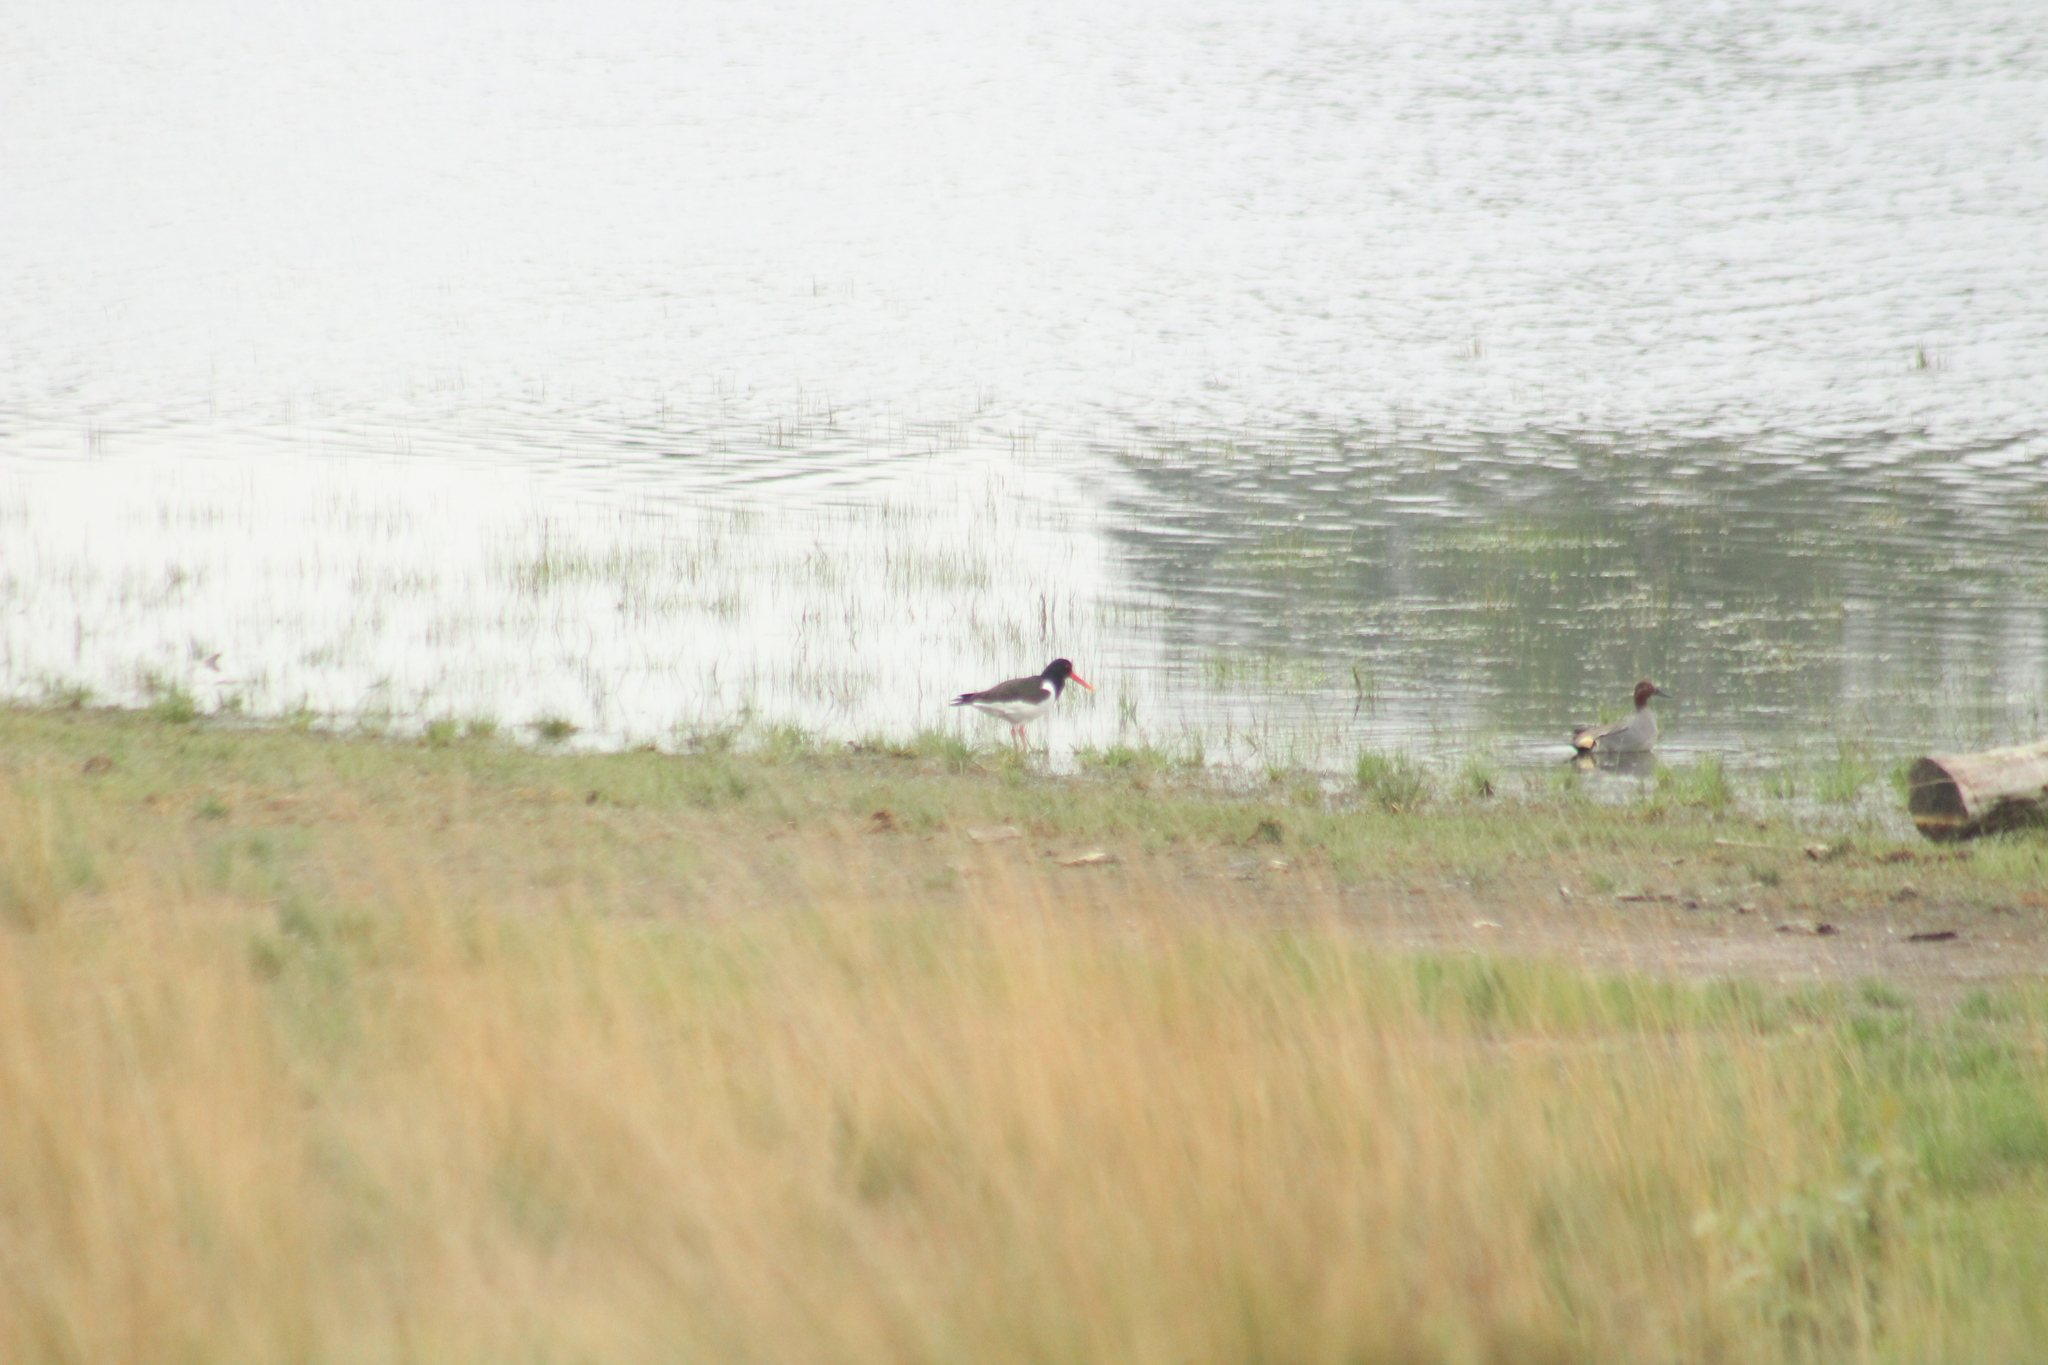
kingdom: Animalia
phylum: Chordata
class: Aves
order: Charadriiformes
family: Haematopodidae
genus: Haematopus
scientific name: Haematopus ostralegus
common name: Eurasian oystercatcher
